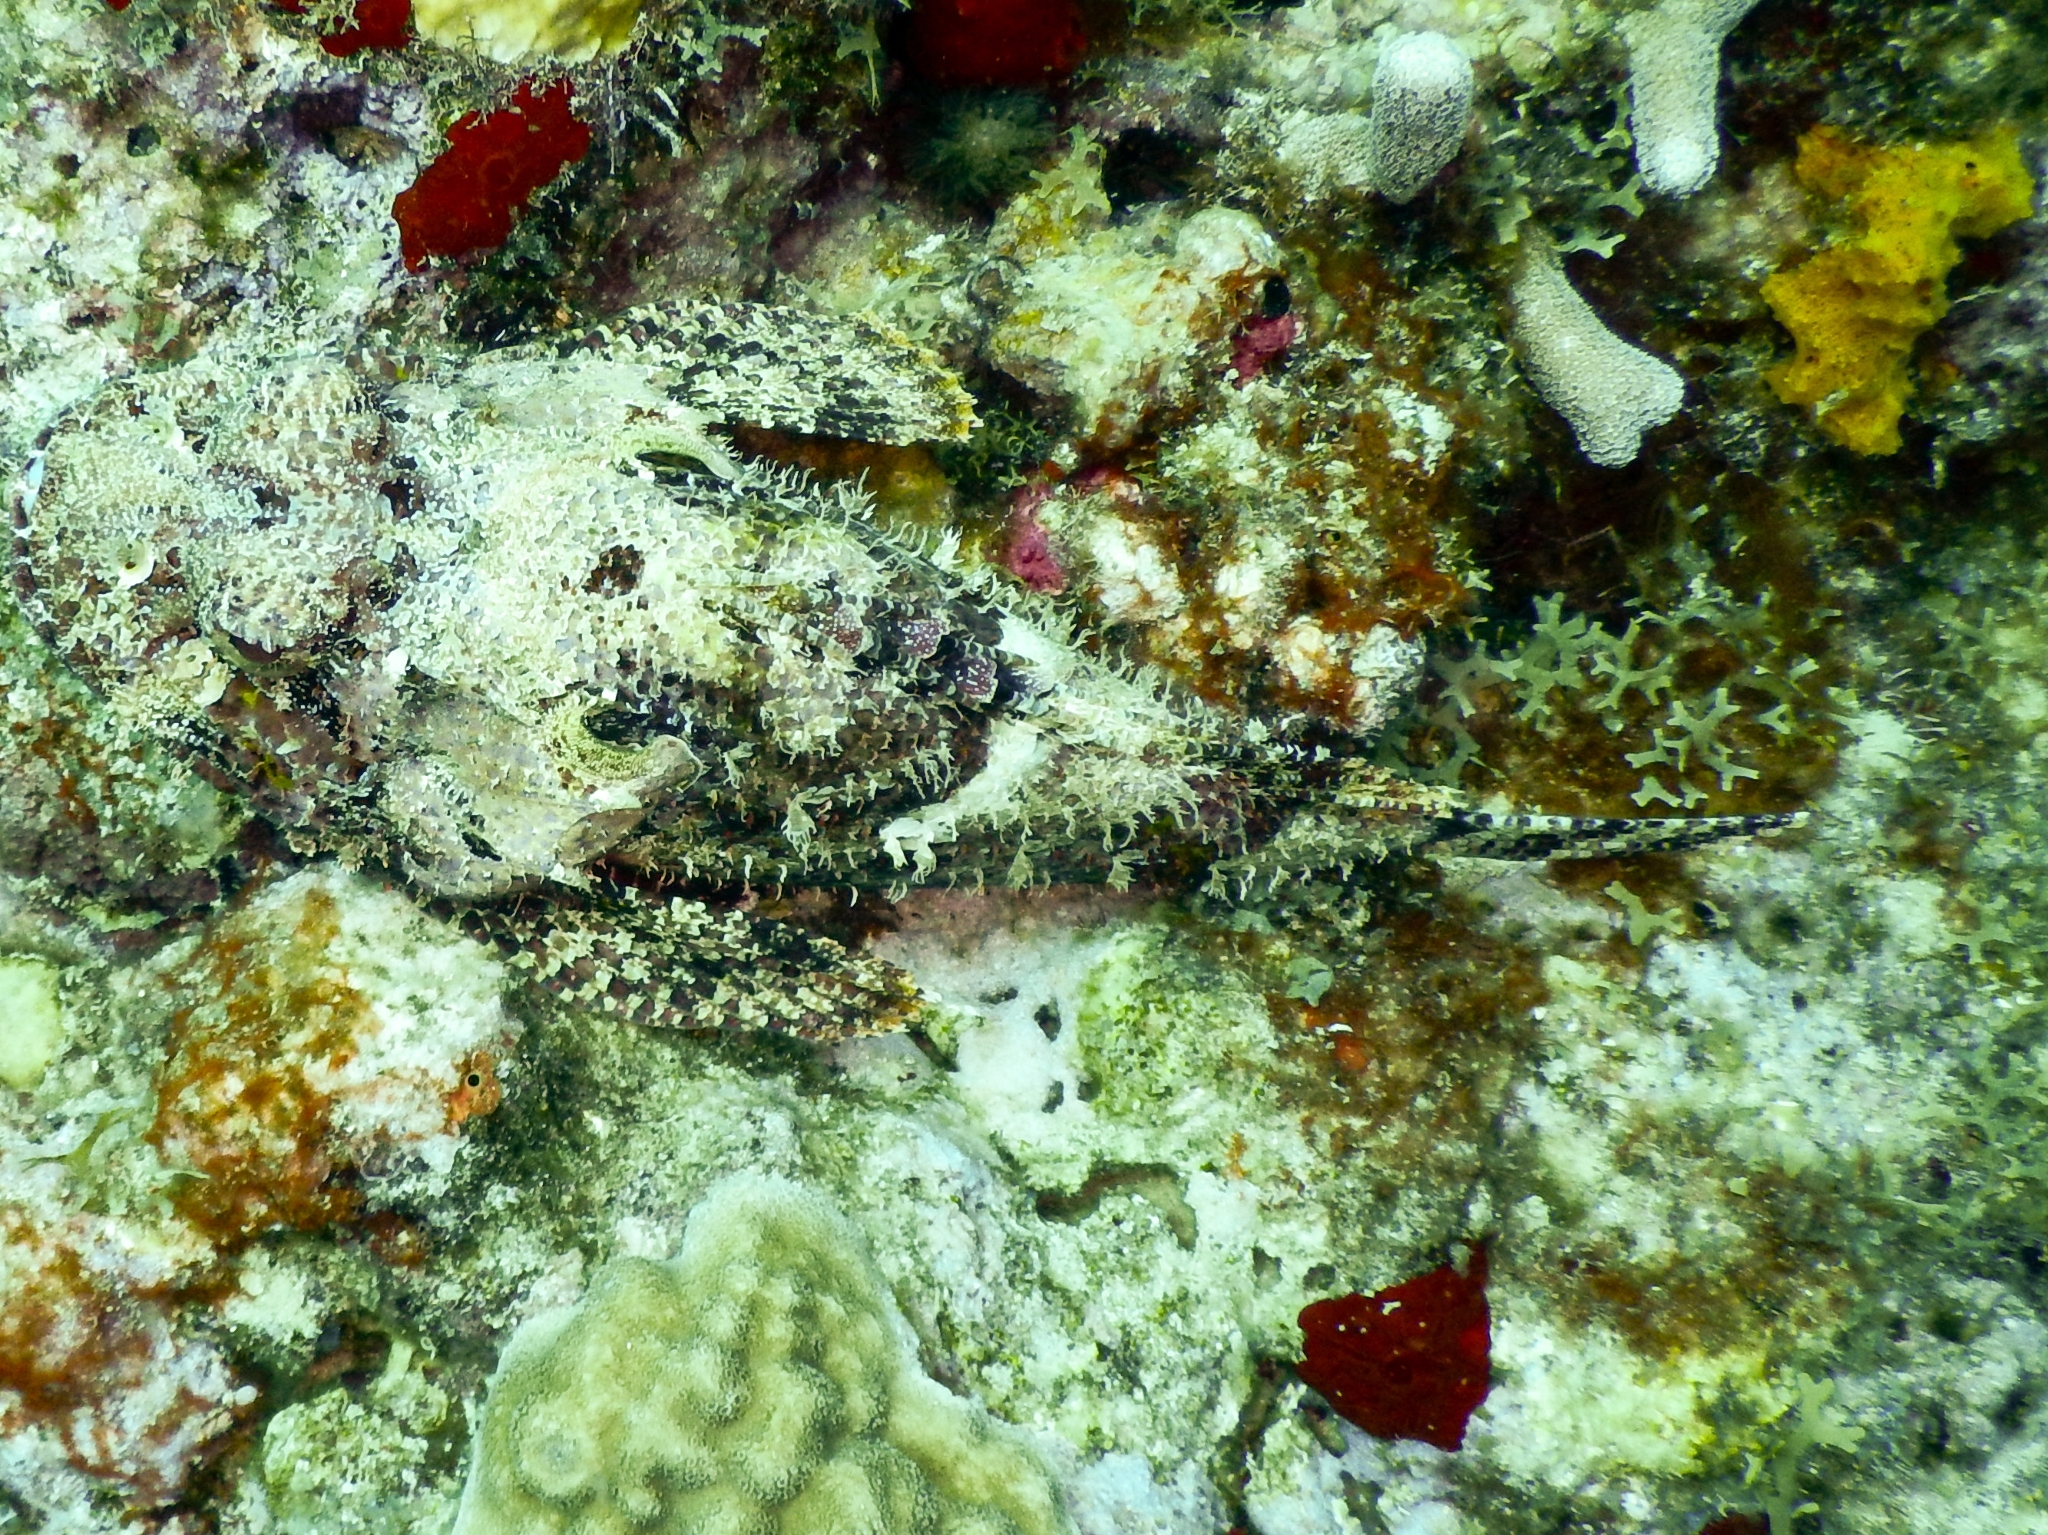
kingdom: Animalia
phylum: Chordata
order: Scorpaeniformes
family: Scorpaenidae
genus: Scorpaena
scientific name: Scorpaena plumieri
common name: Spotted scorpionfish
